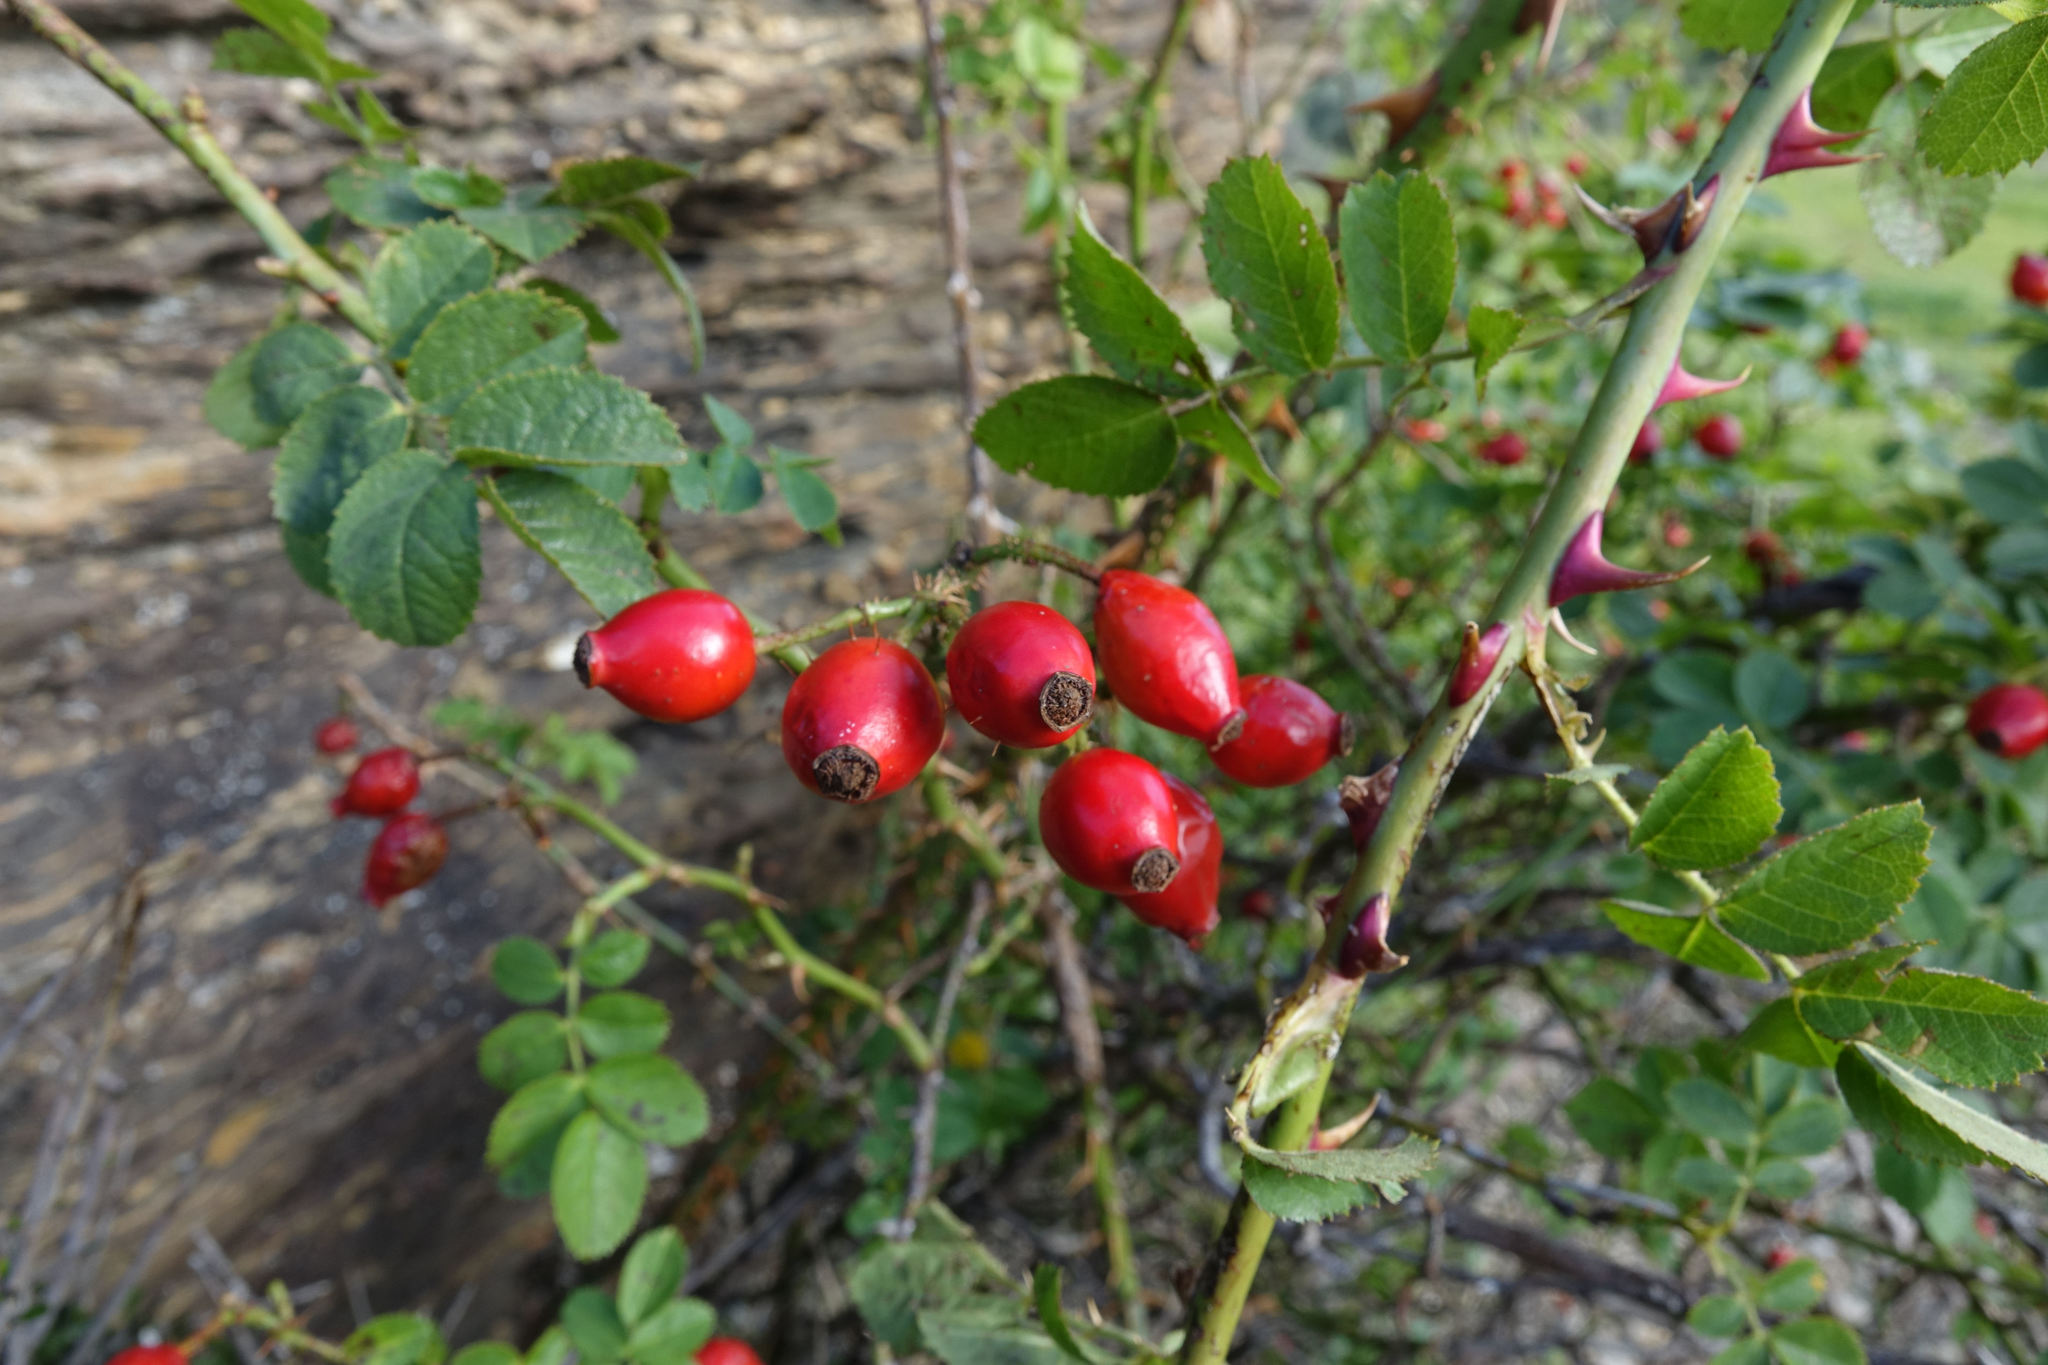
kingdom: Plantae
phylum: Tracheophyta
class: Magnoliopsida
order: Rosales
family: Rosaceae
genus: Rosa
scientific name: Rosa rubiginosa
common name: Sweet-briar
